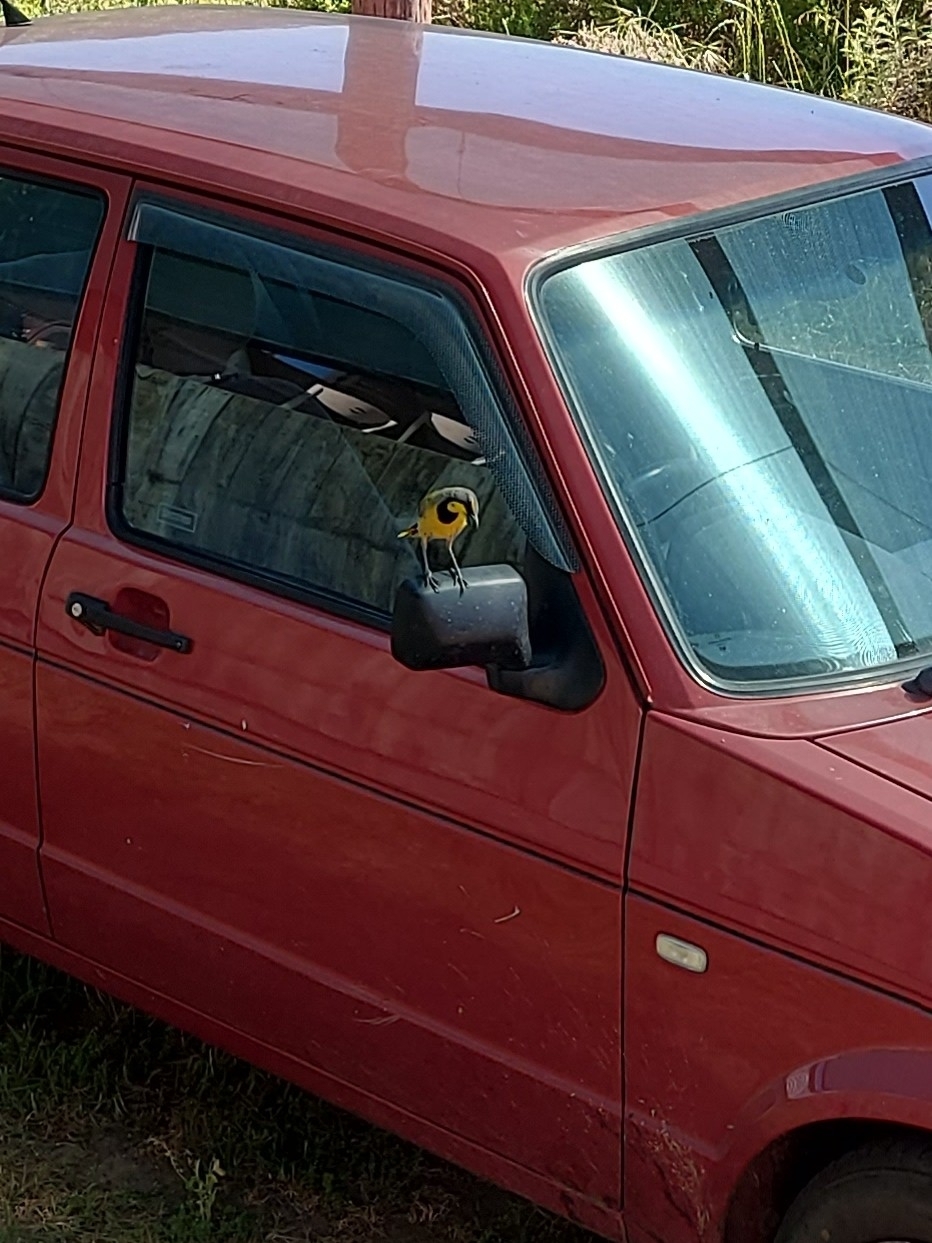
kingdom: Animalia
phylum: Chordata
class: Aves
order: Passeriformes
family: Malaconotidae
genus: Telophorus
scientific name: Telophorus zeylonus
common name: Bokmakierie
